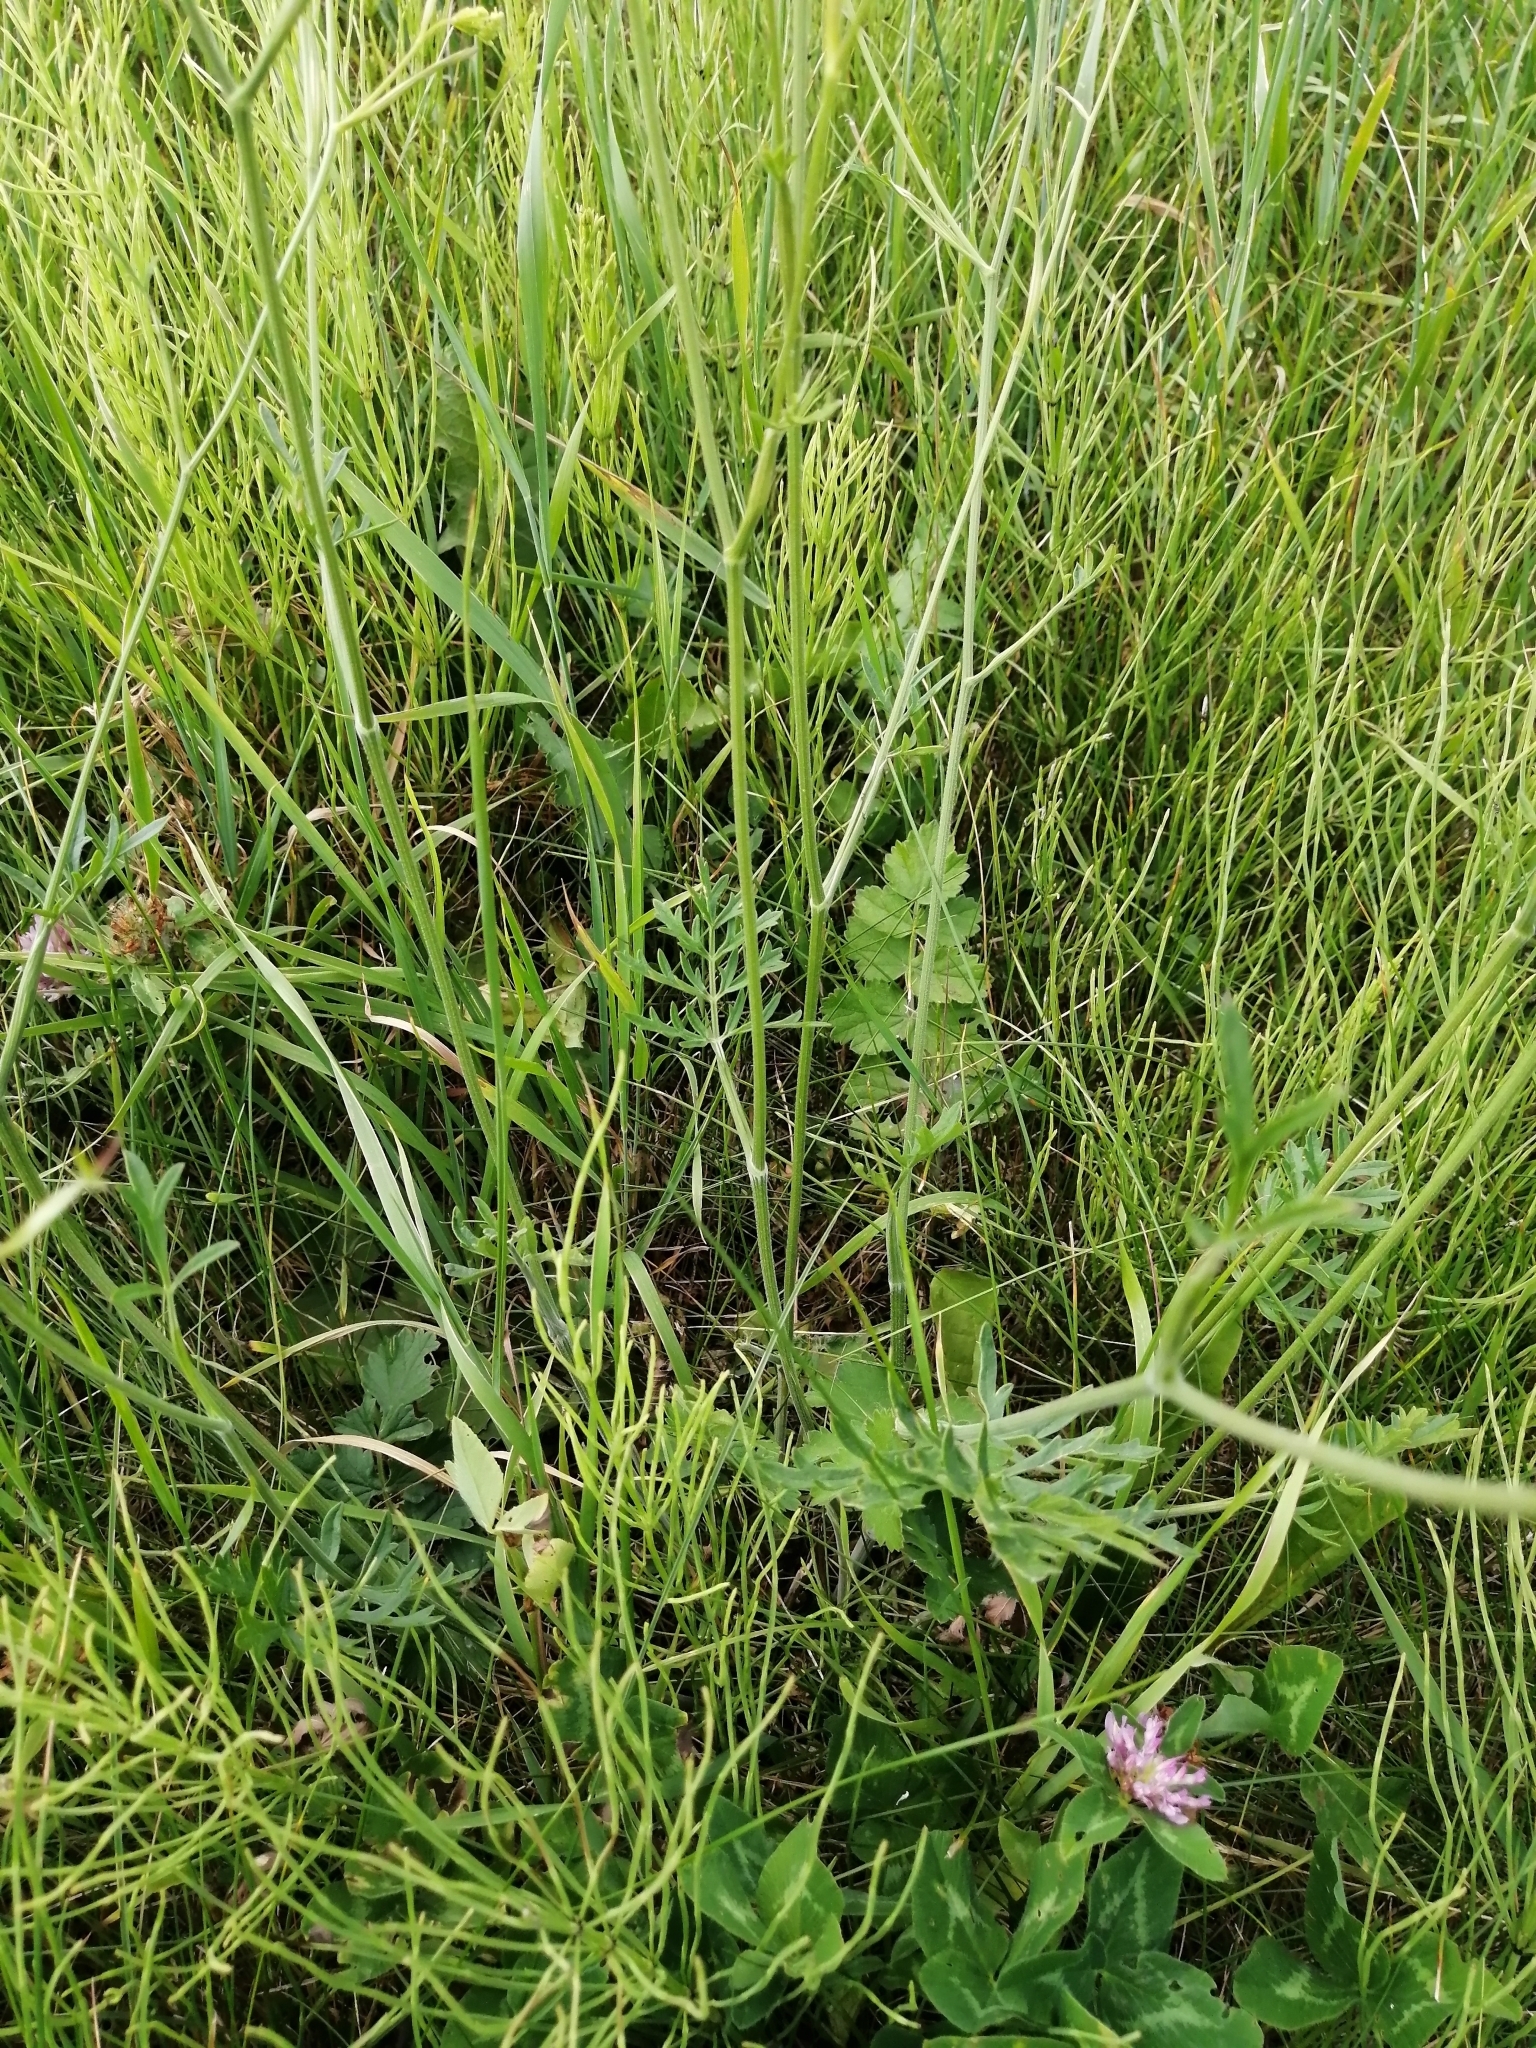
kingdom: Plantae
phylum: Tracheophyta
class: Magnoliopsida
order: Apiales
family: Apiaceae
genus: Pimpinella
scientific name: Pimpinella saxifraga
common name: Burnet-saxifrage
